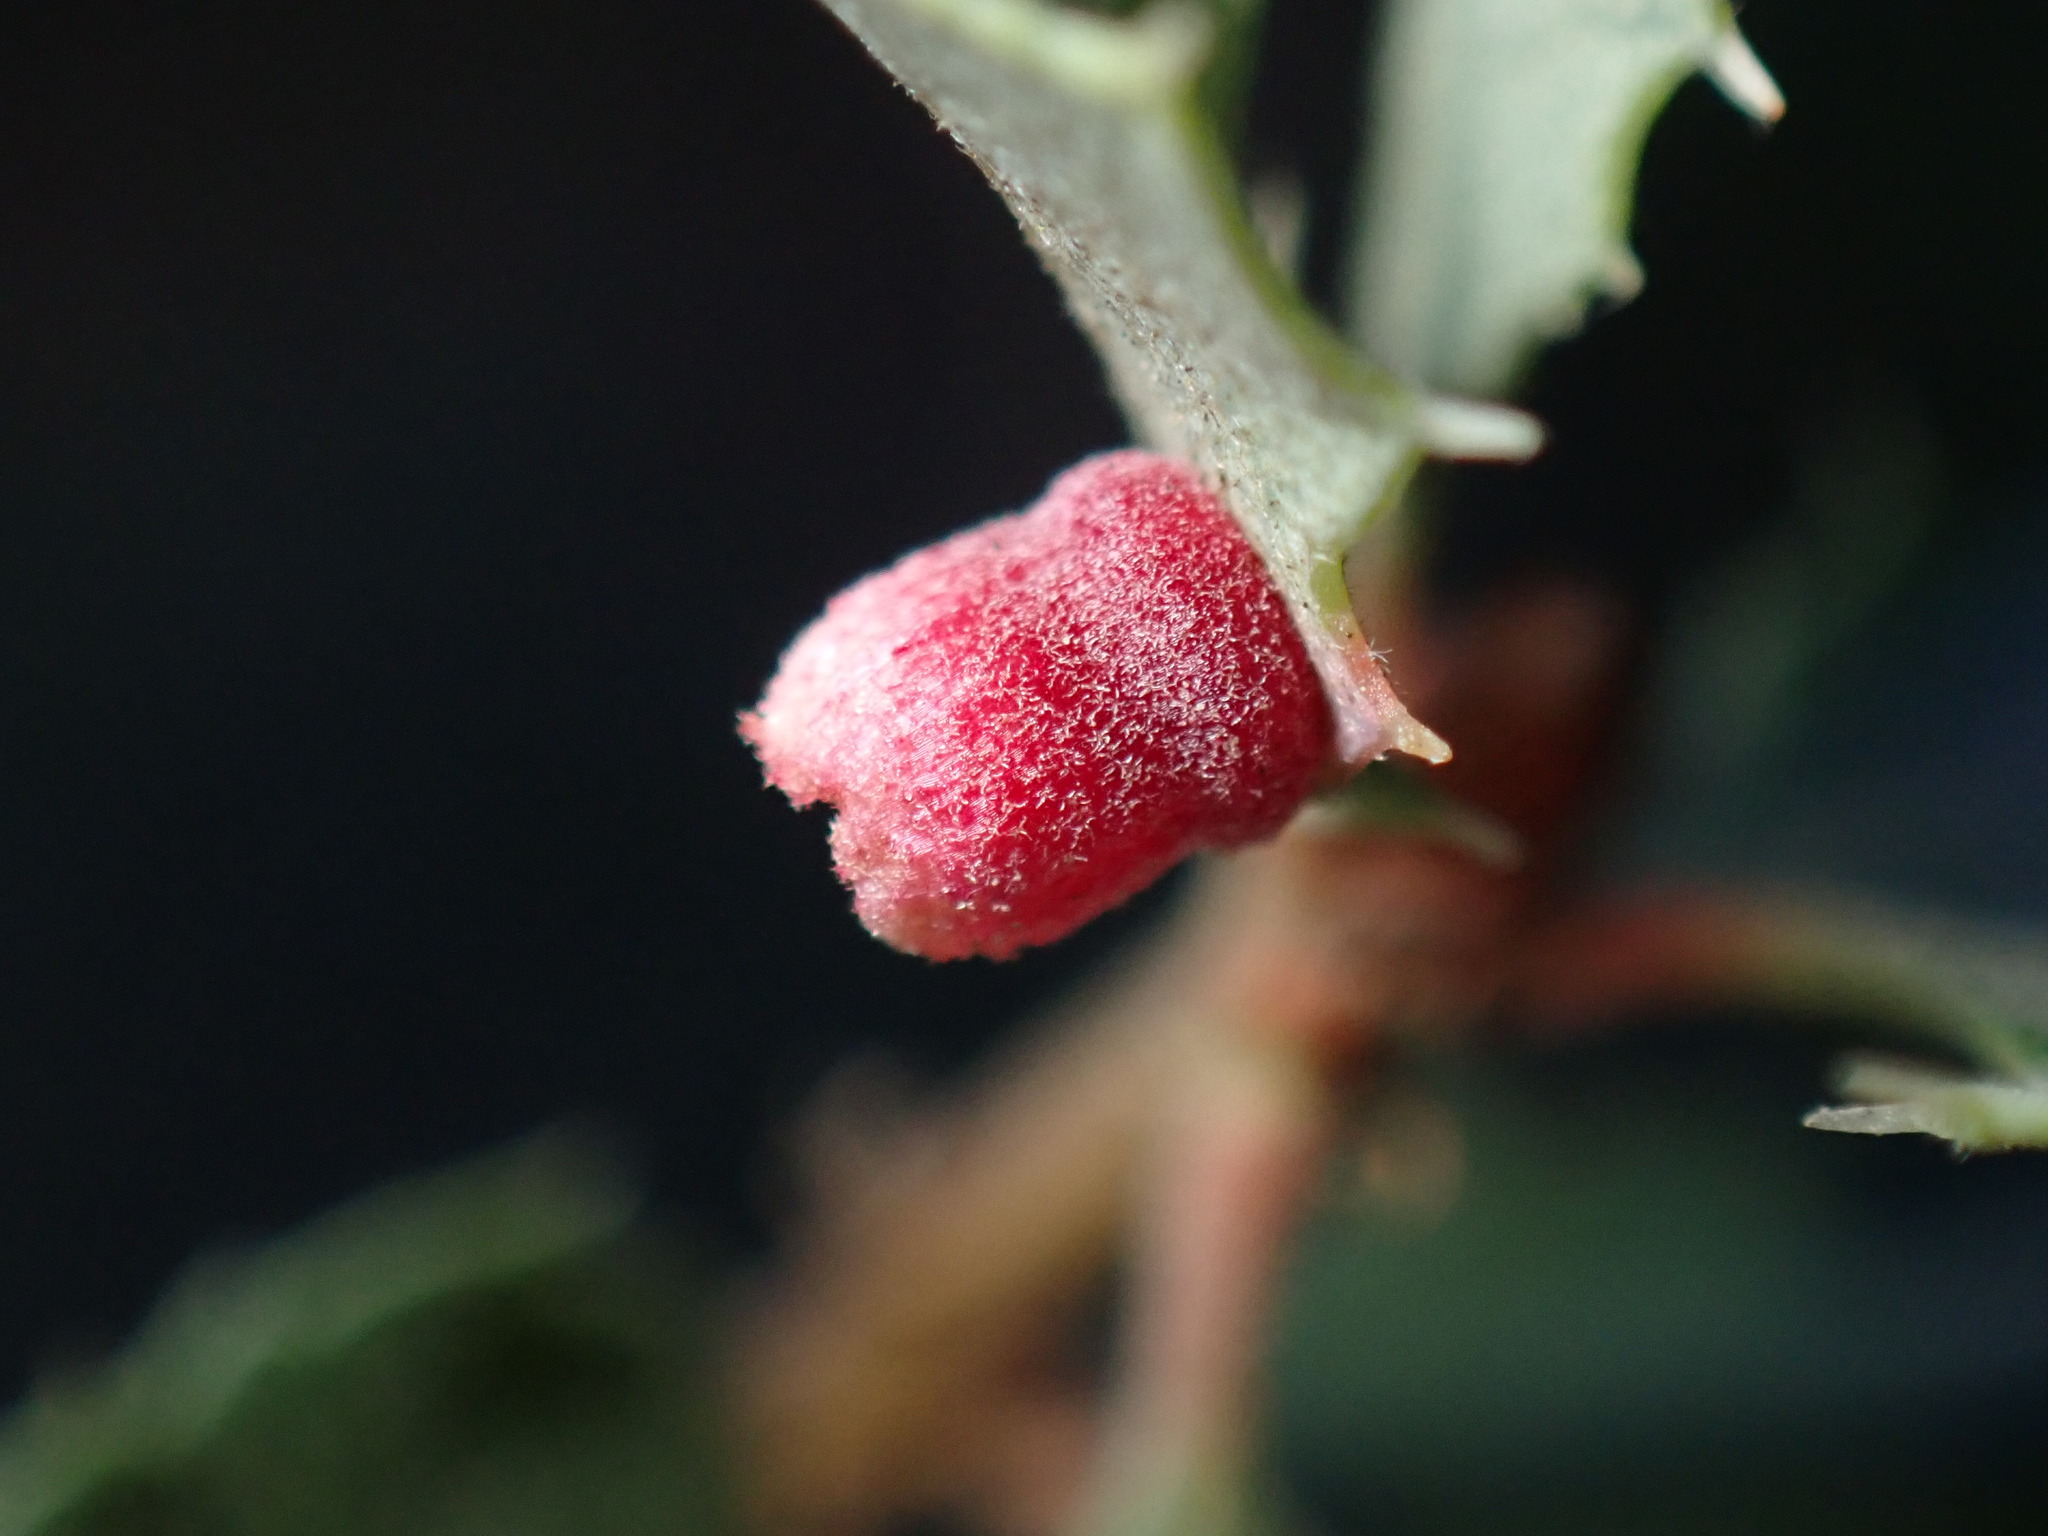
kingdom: Animalia
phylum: Arthropoda
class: Insecta
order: Hymenoptera
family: Cynipidae
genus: Phylloteras
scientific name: Phylloteras
